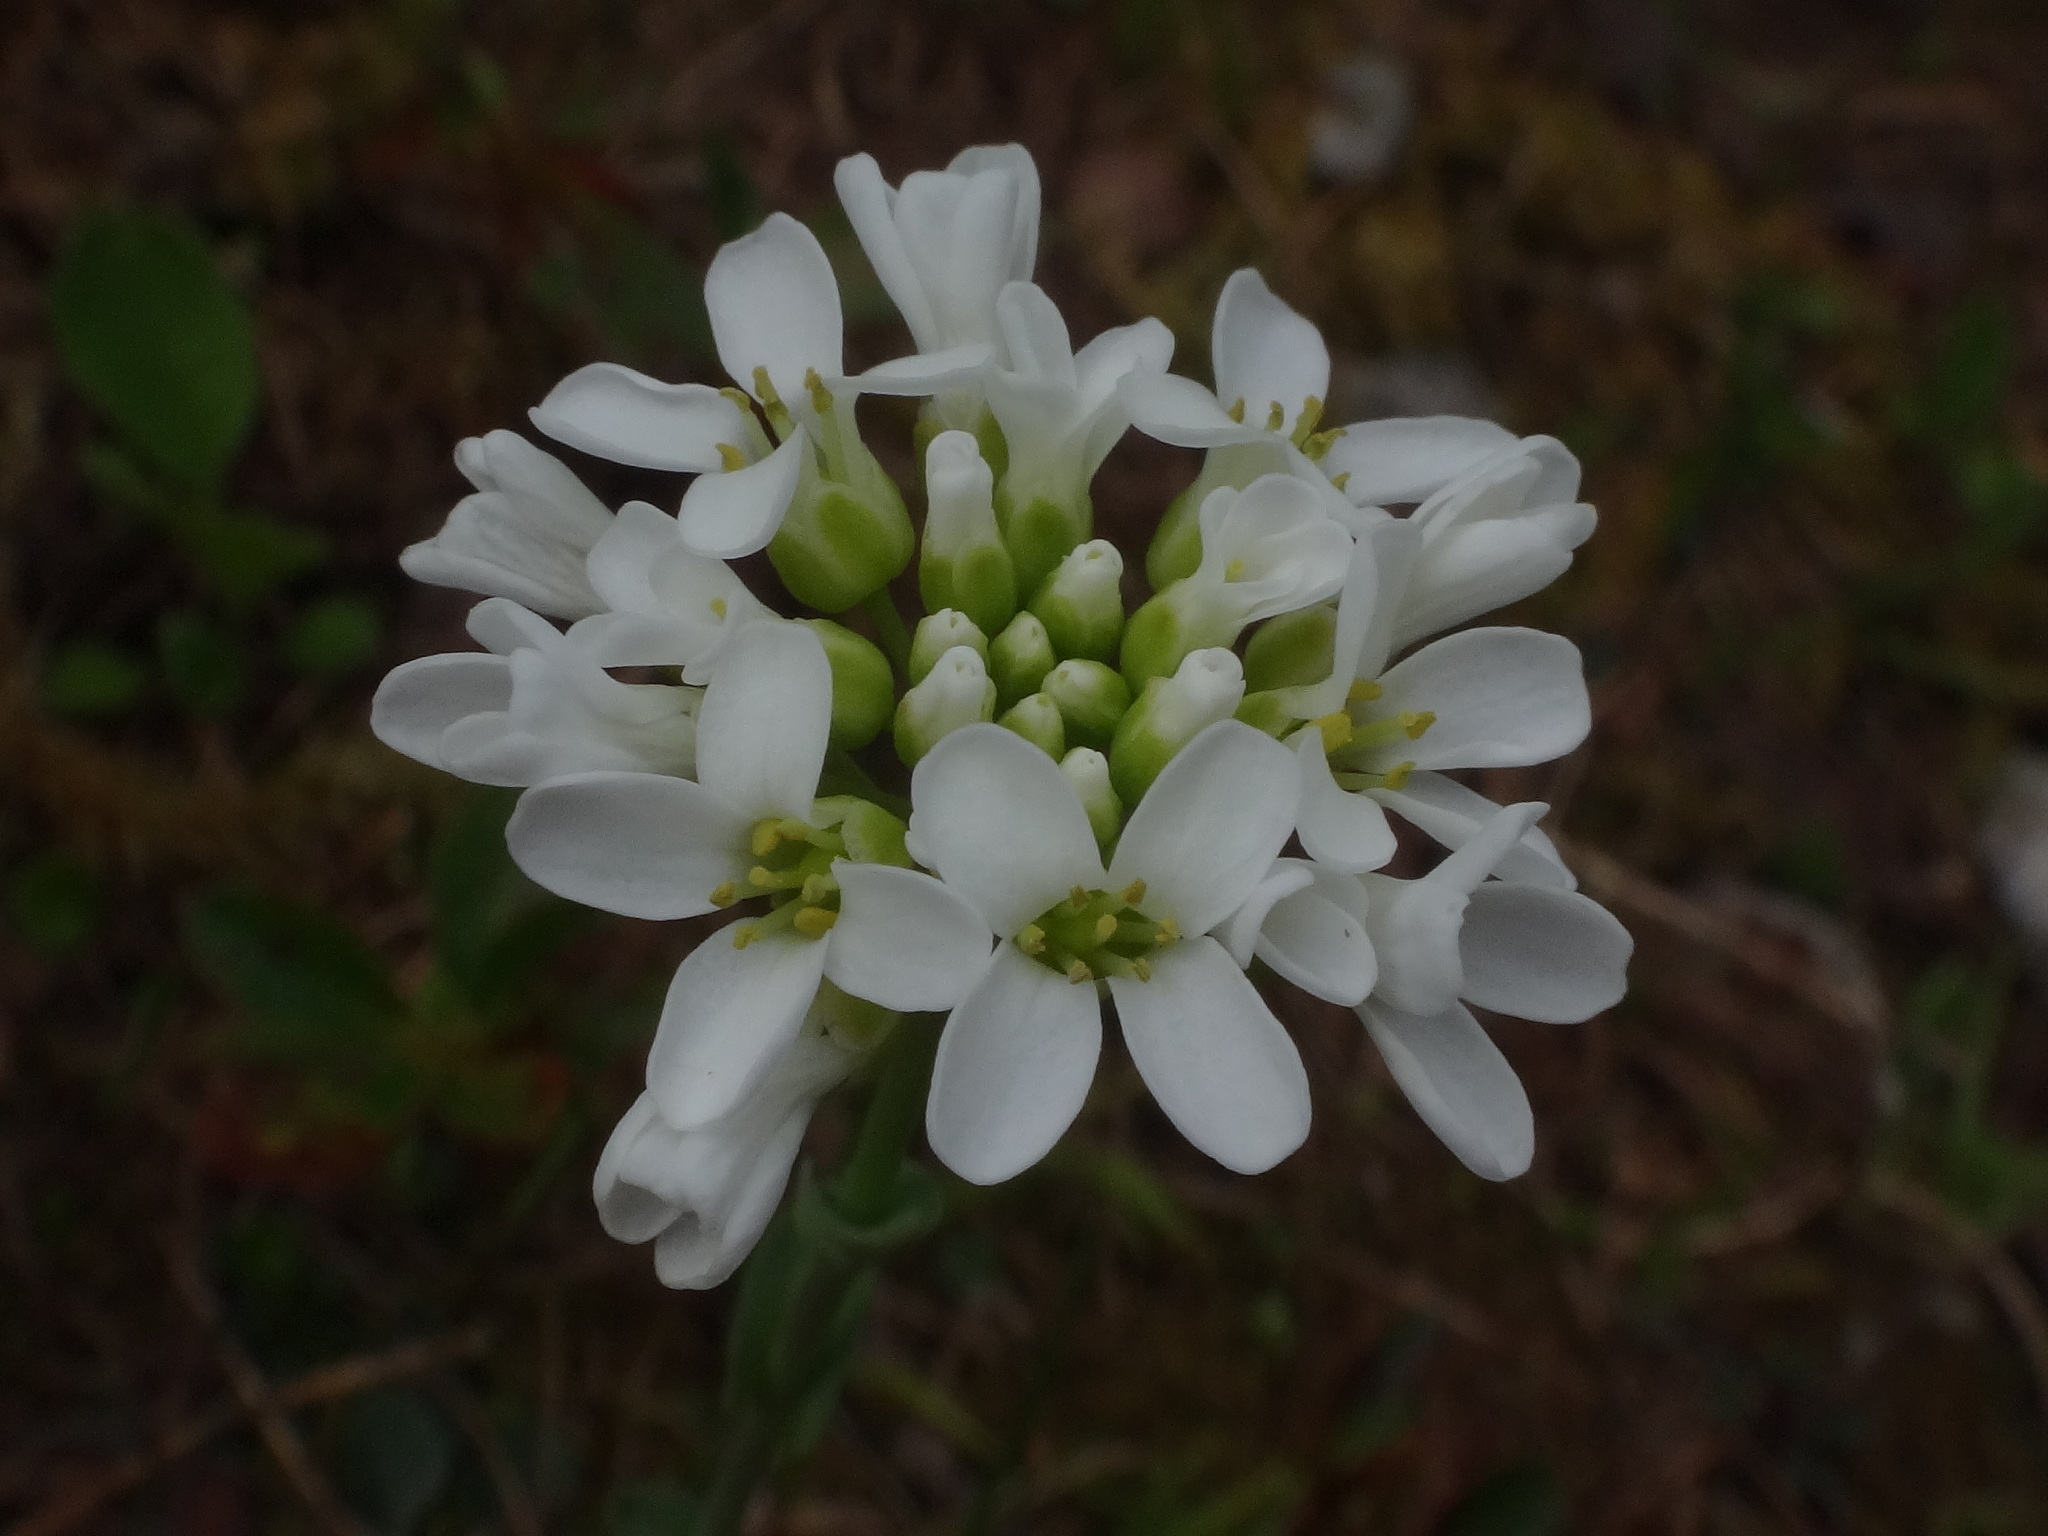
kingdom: Plantae
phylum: Tracheophyta
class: Magnoliopsida
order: Brassicales
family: Brassicaceae
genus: Noccaea
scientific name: Noccaea alpestris
